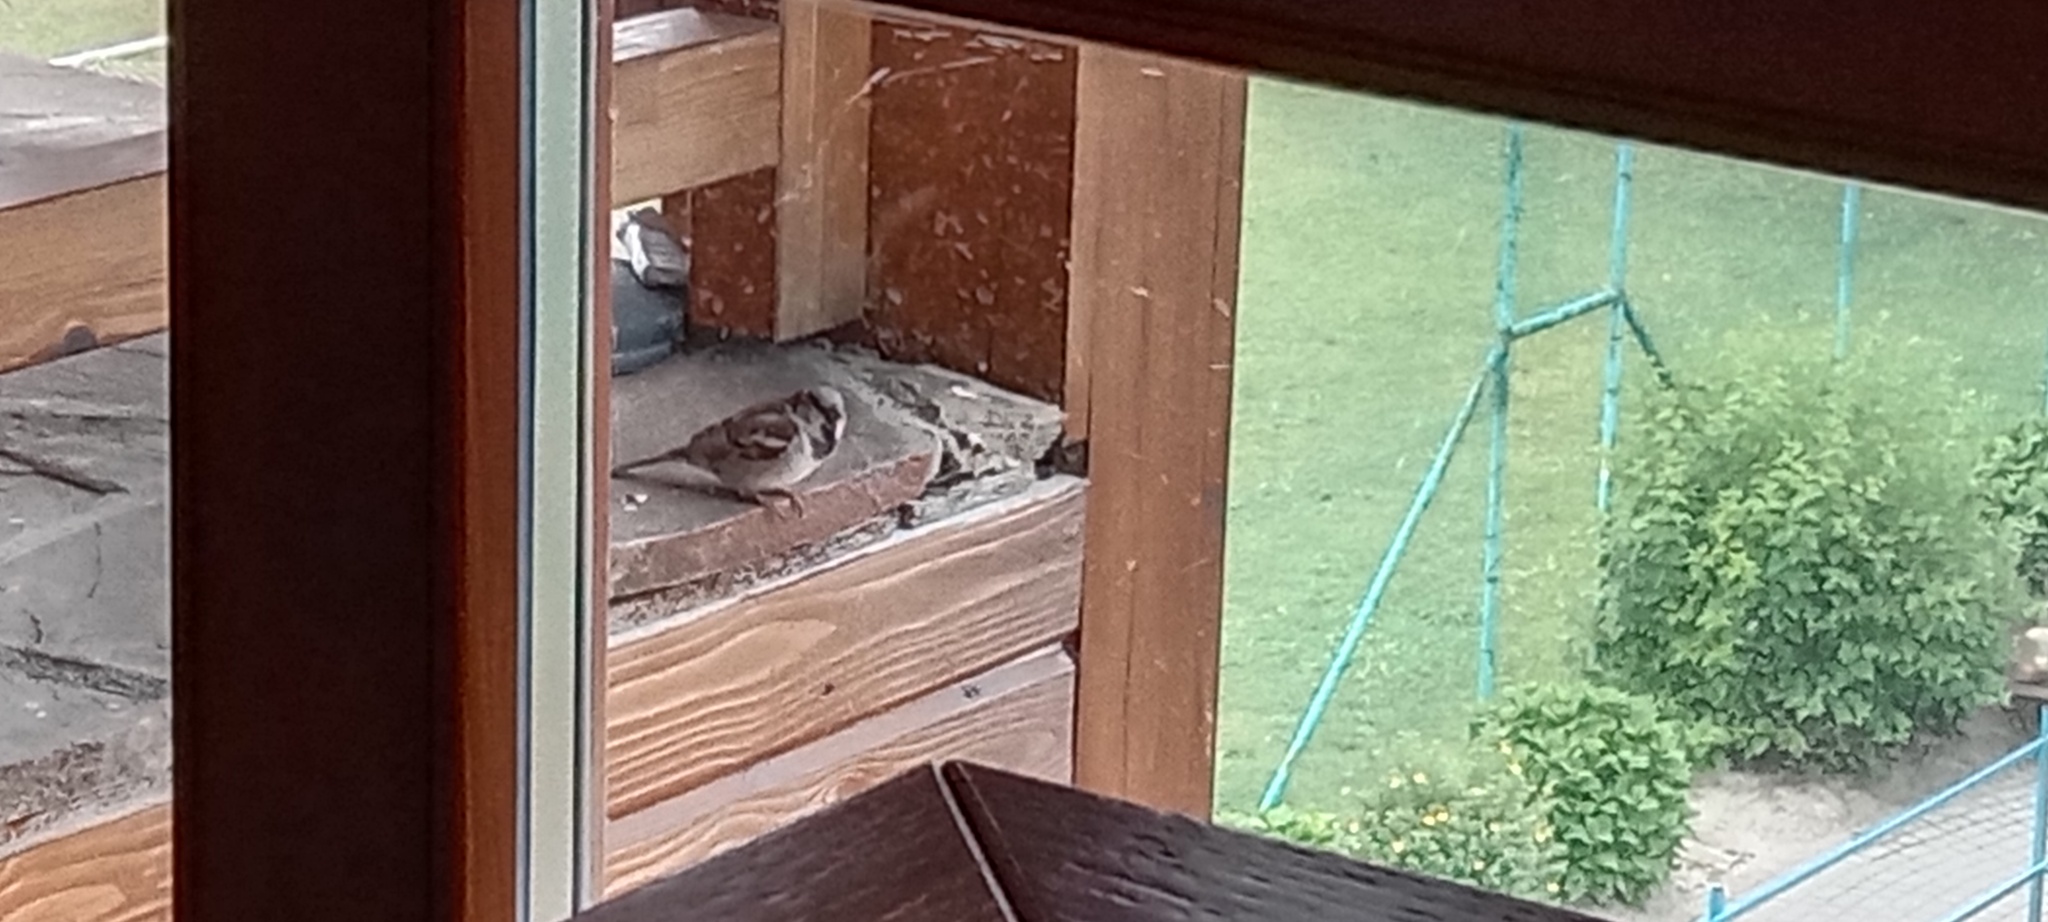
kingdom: Animalia
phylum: Chordata
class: Aves
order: Passeriformes
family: Passeridae
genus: Passer
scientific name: Passer domesticus
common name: House sparrow
